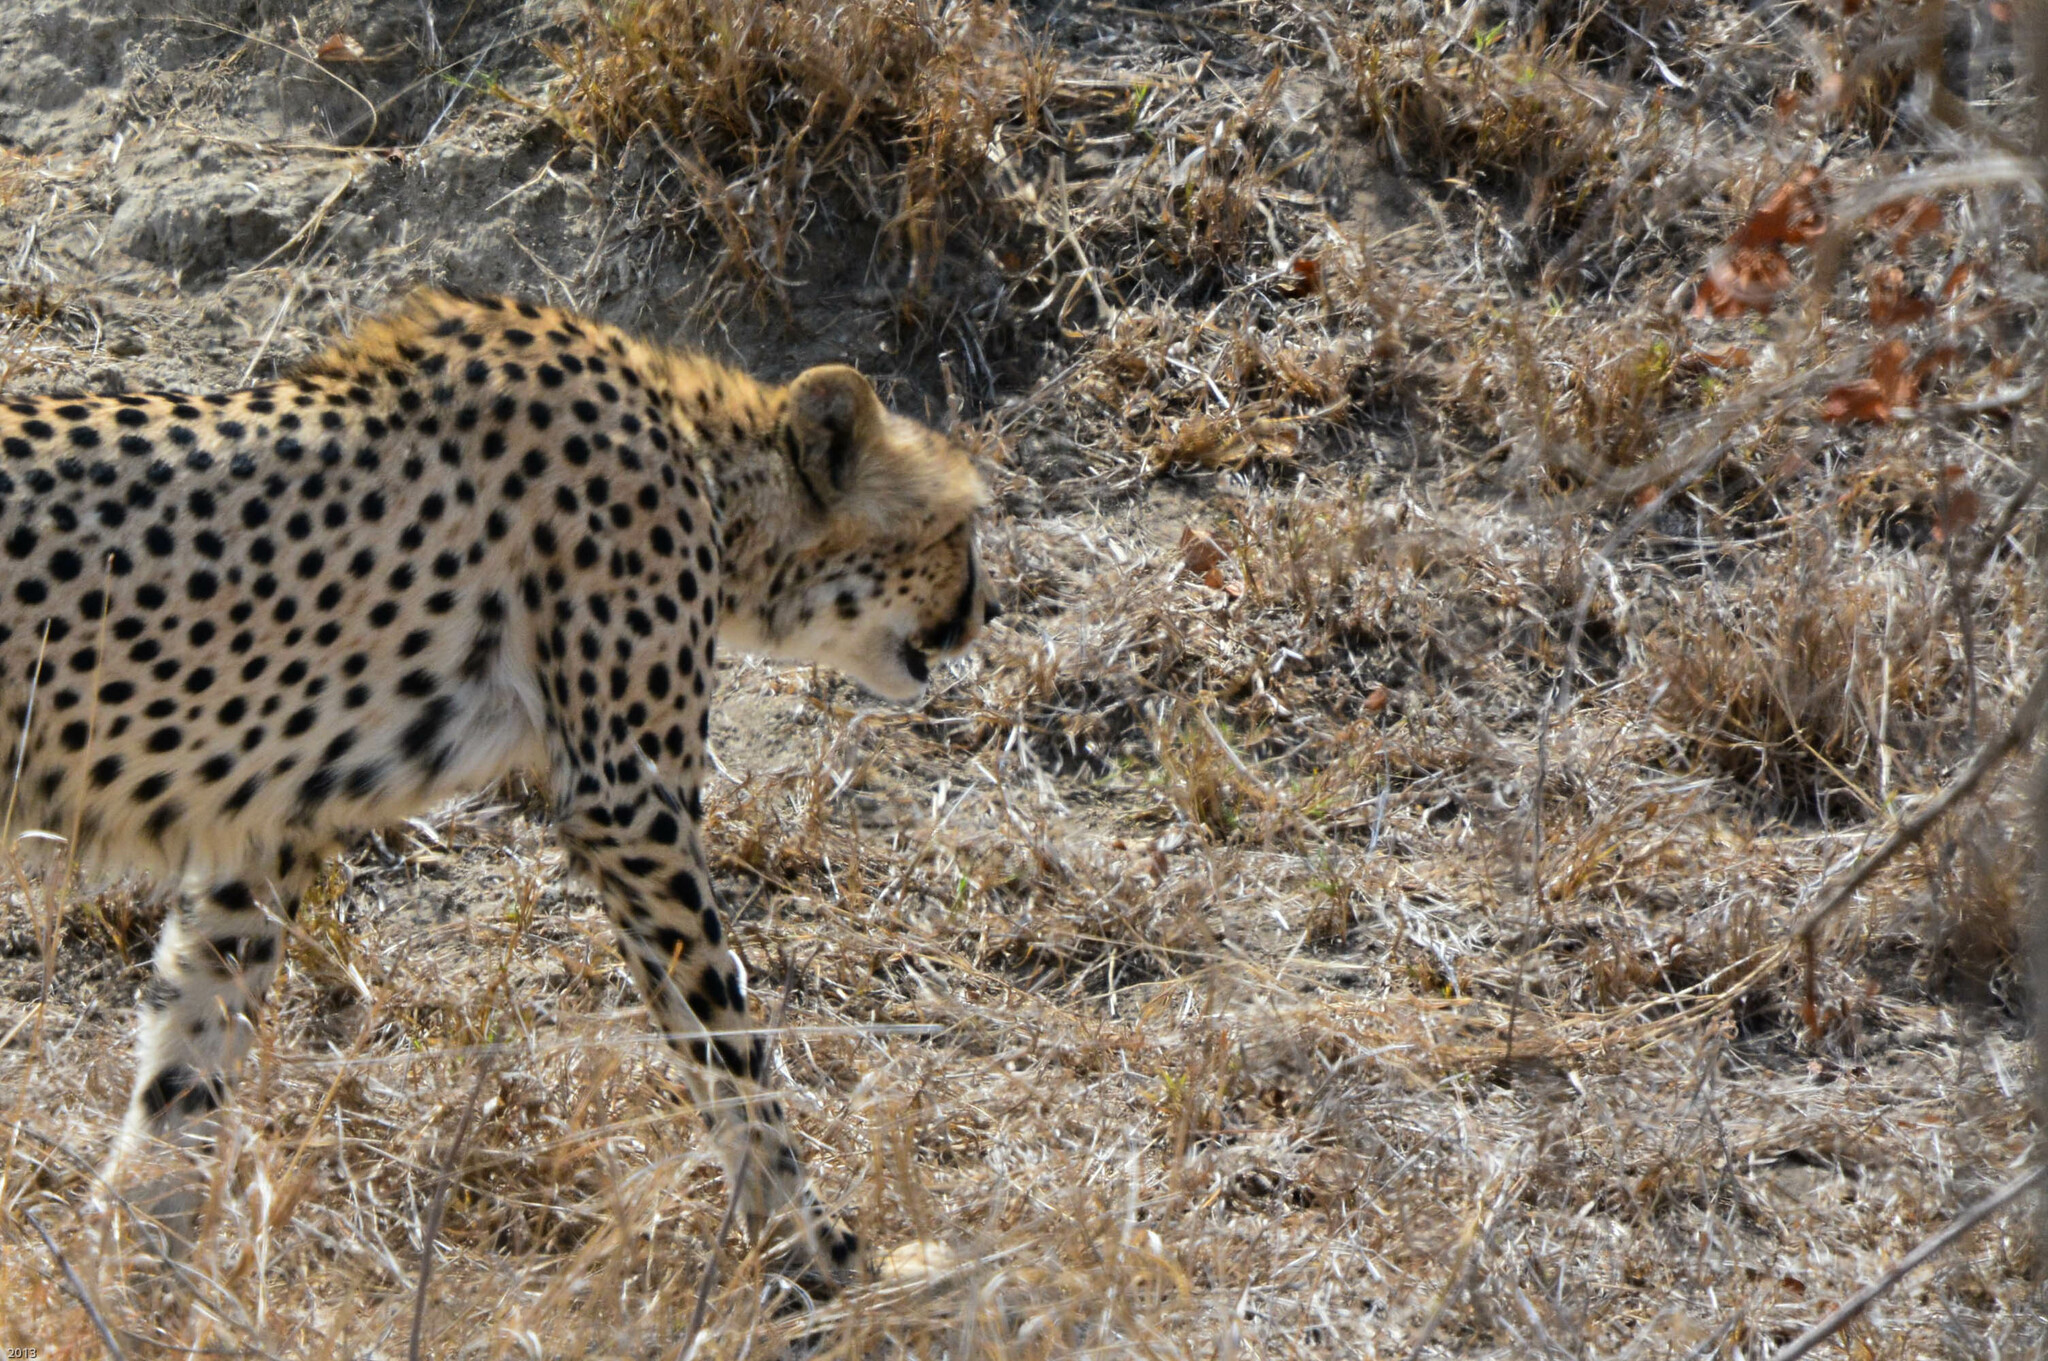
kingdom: Animalia
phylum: Chordata
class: Mammalia
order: Carnivora
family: Felidae
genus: Acinonyx
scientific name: Acinonyx jubatus
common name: Cheetah
